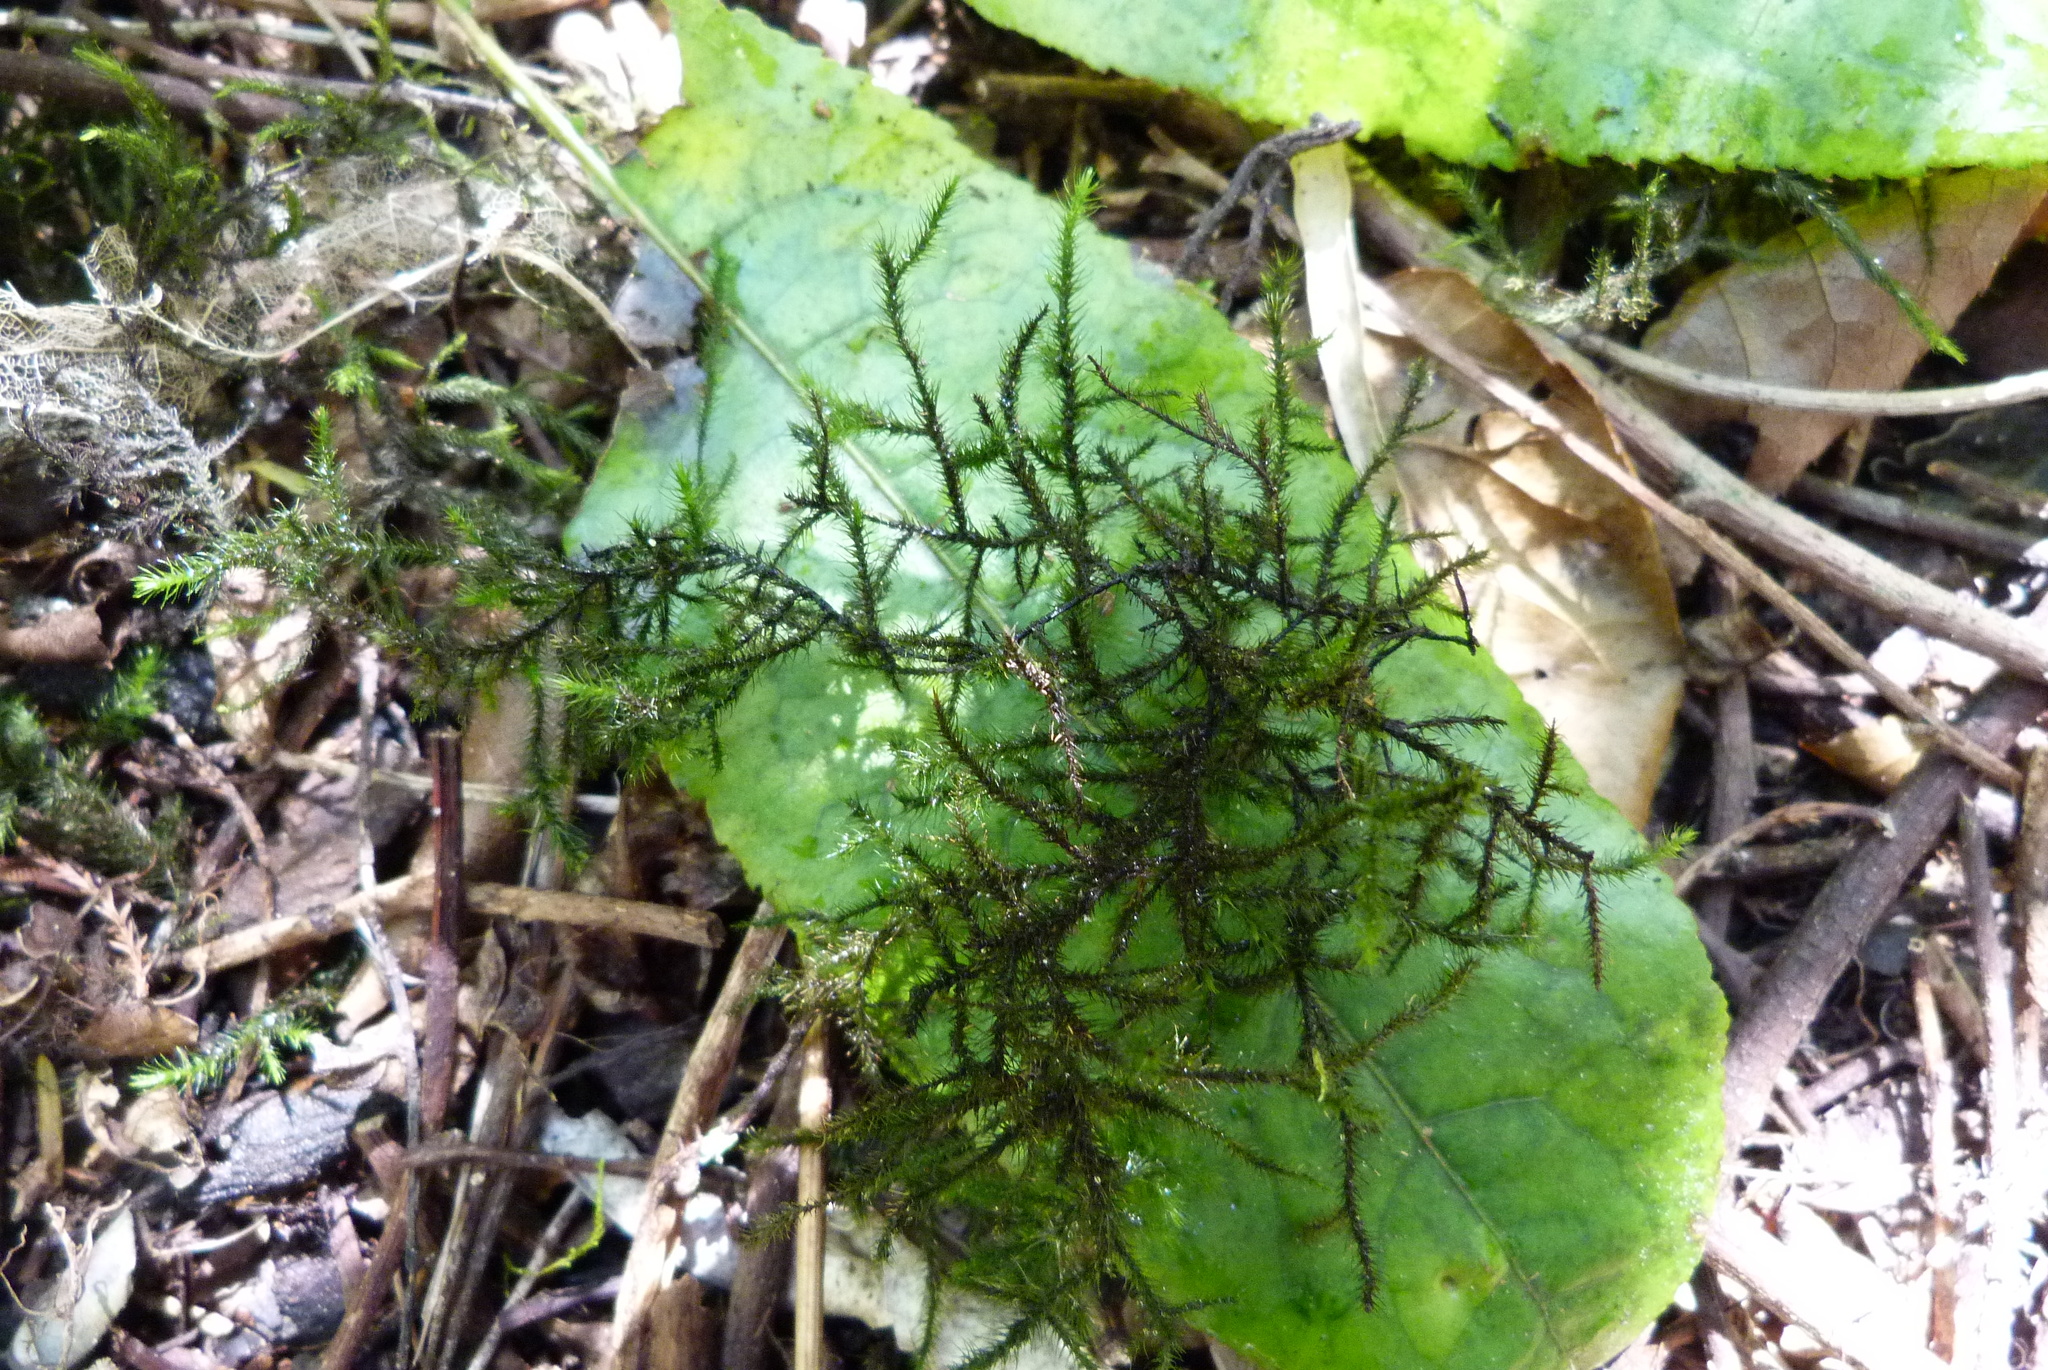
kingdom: Plantae
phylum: Bryophyta
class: Bryopsida
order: Hypnales
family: Neckeraceae
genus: Echinodiopsis
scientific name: Echinodiopsis hispida
